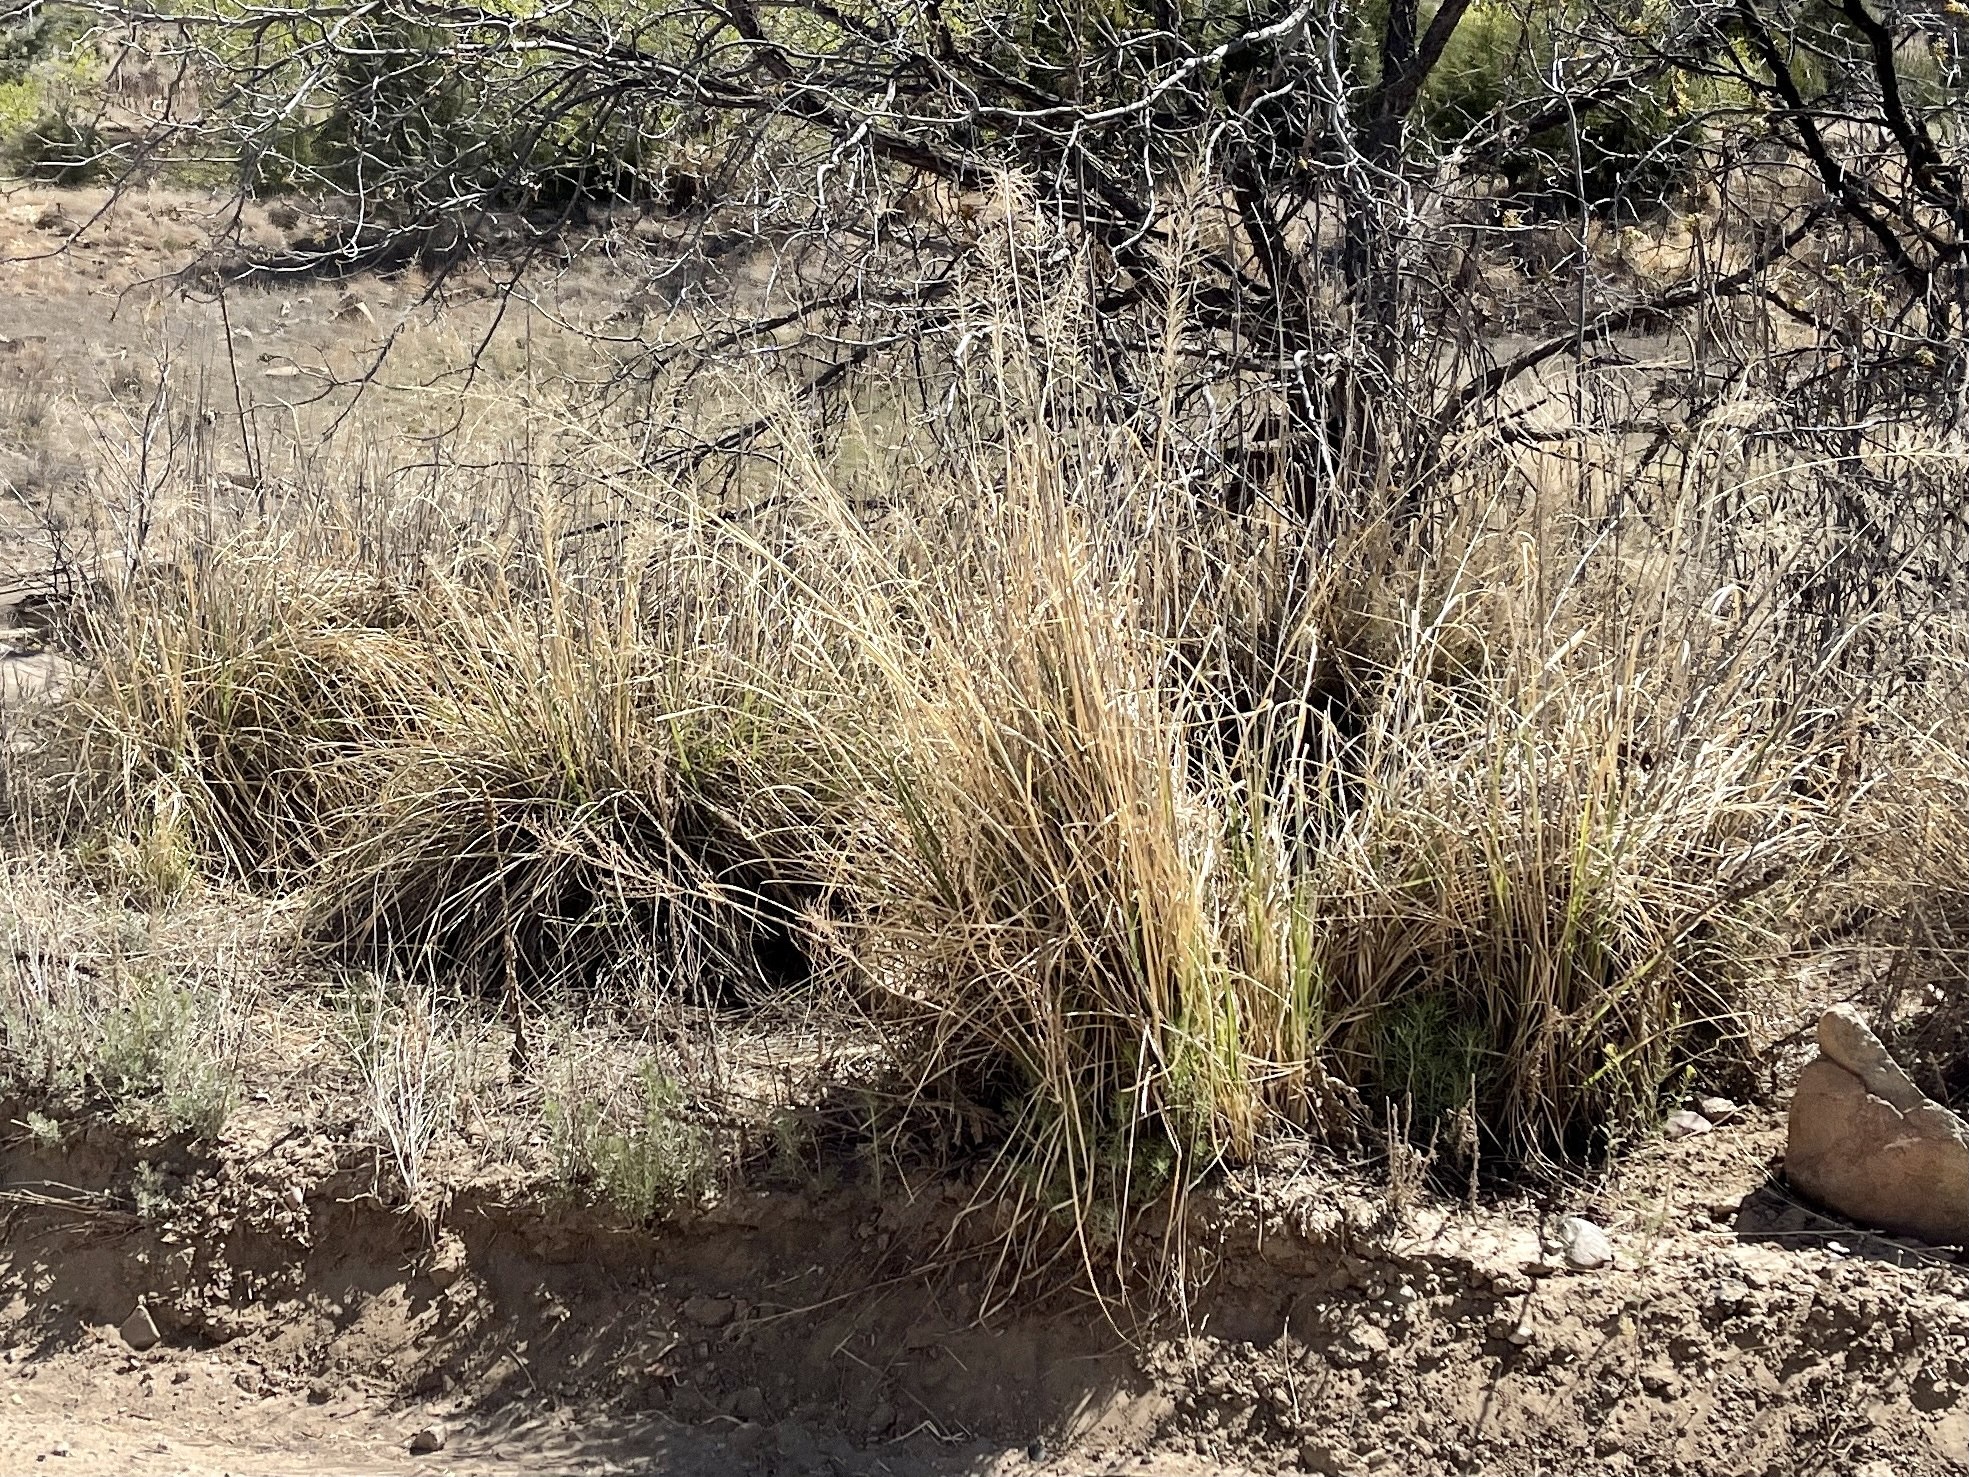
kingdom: Plantae
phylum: Tracheophyta
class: Liliopsida
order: Poales
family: Poaceae
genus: Sporobolus
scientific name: Sporobolus wrightii
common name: Big alkali sacaton
